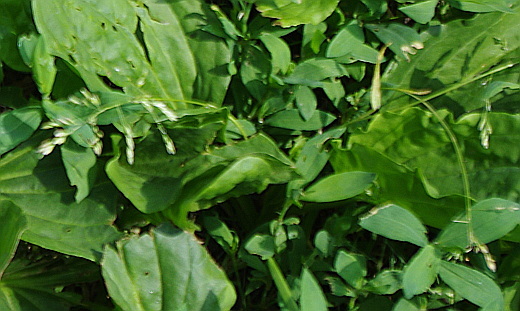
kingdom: Plantae
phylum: Tracheophyta
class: Liliopsida
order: Poales
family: Poaceae
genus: Poa
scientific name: Poa annua
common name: Annual bluegrass
